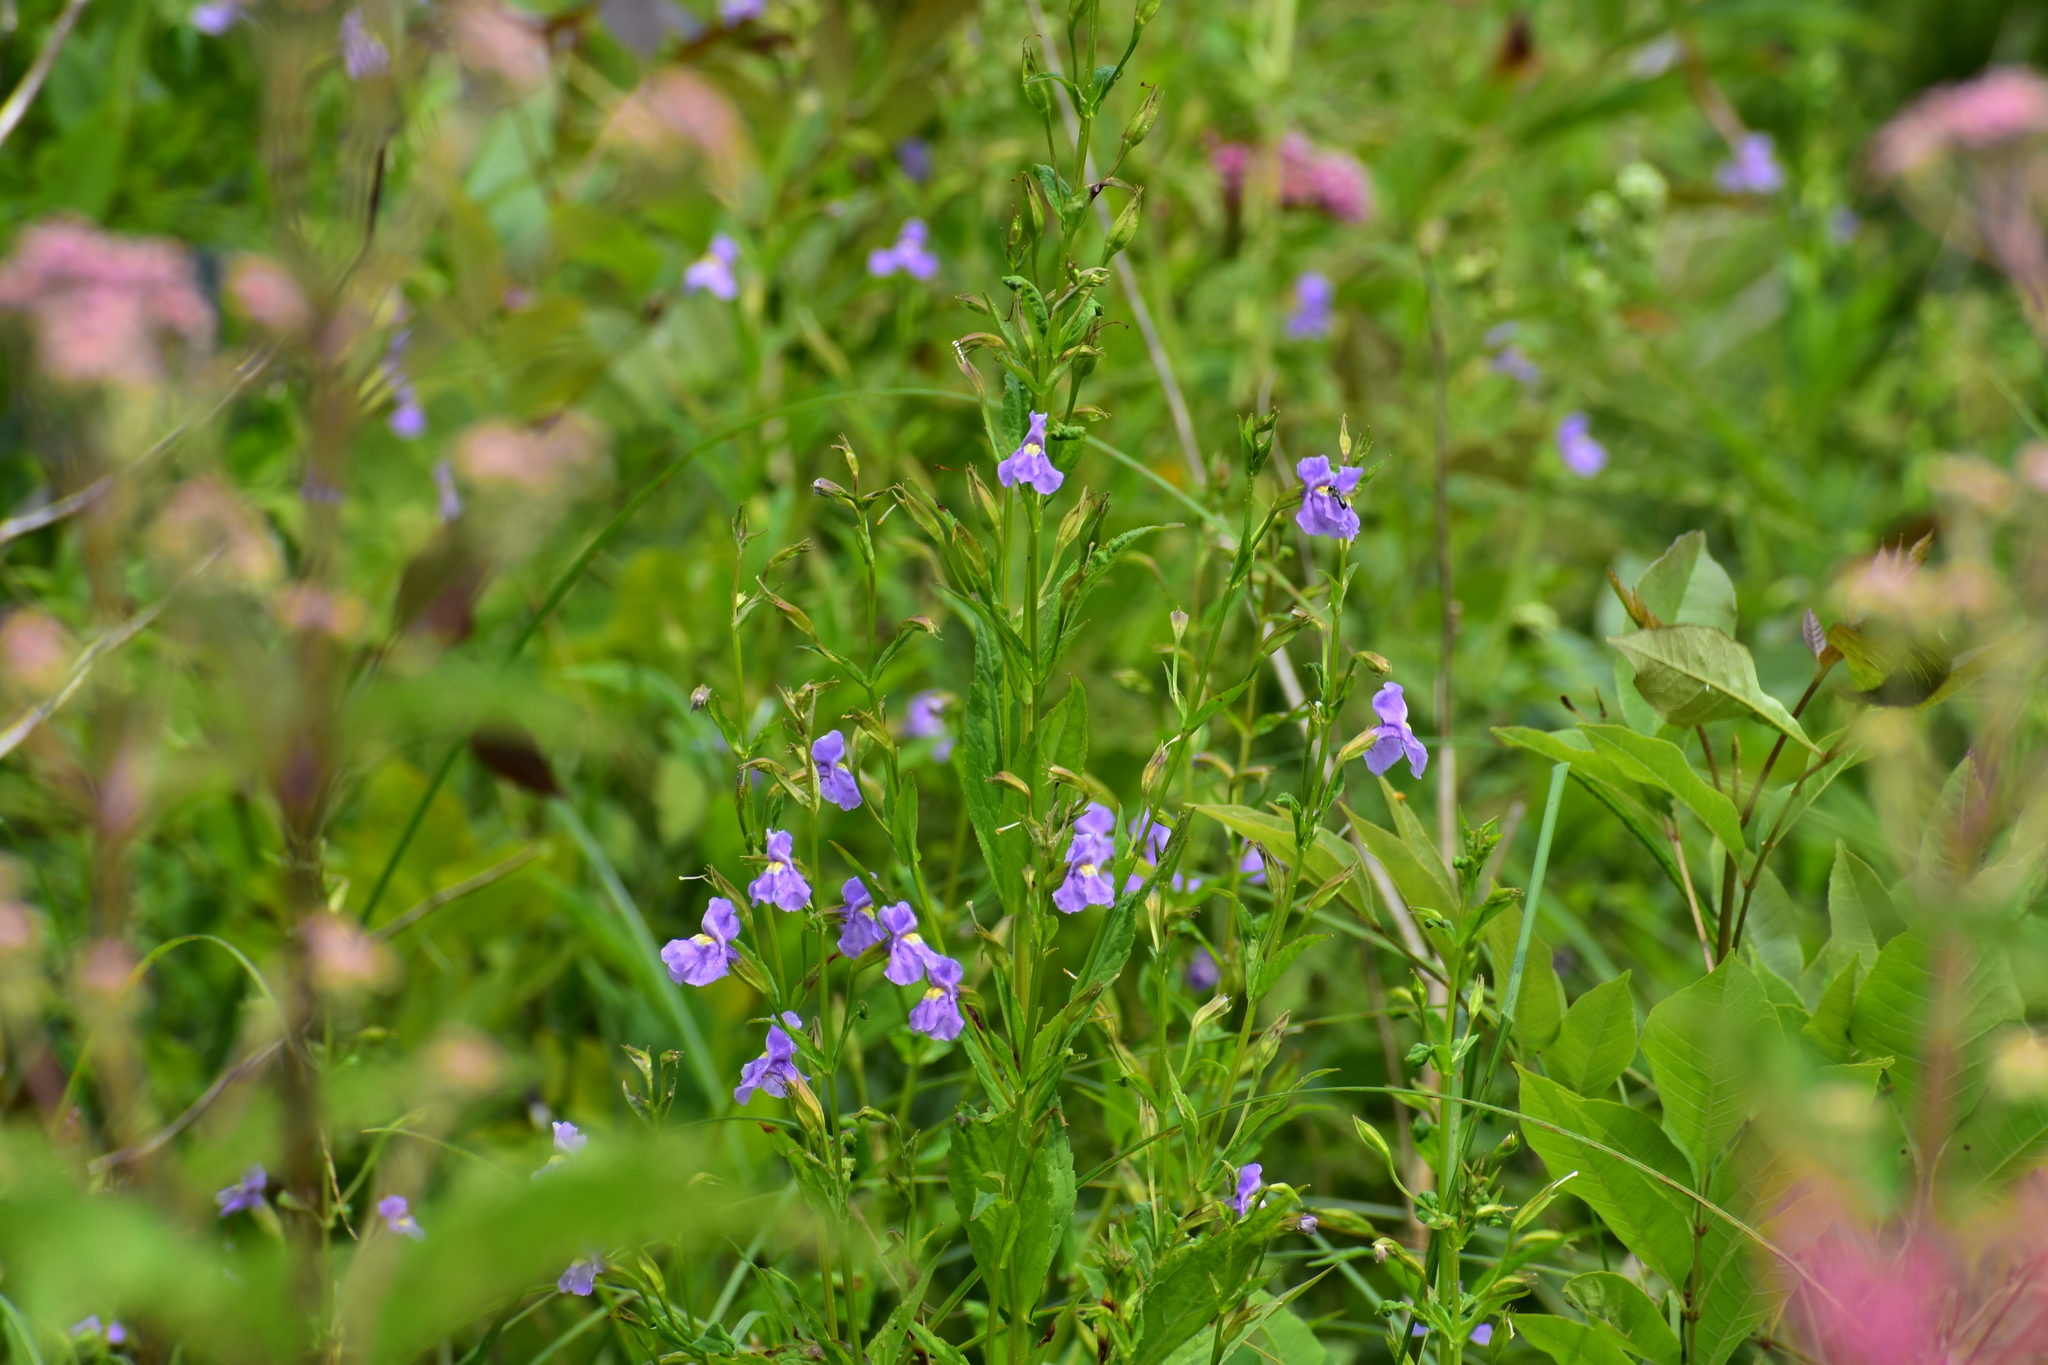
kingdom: Plantae
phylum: Tracheophyta
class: Magnoliopsida
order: Lamiales
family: Phrymaceae
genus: Mimulus
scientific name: Mimulus ringens
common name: Allegheny monkeyflower
